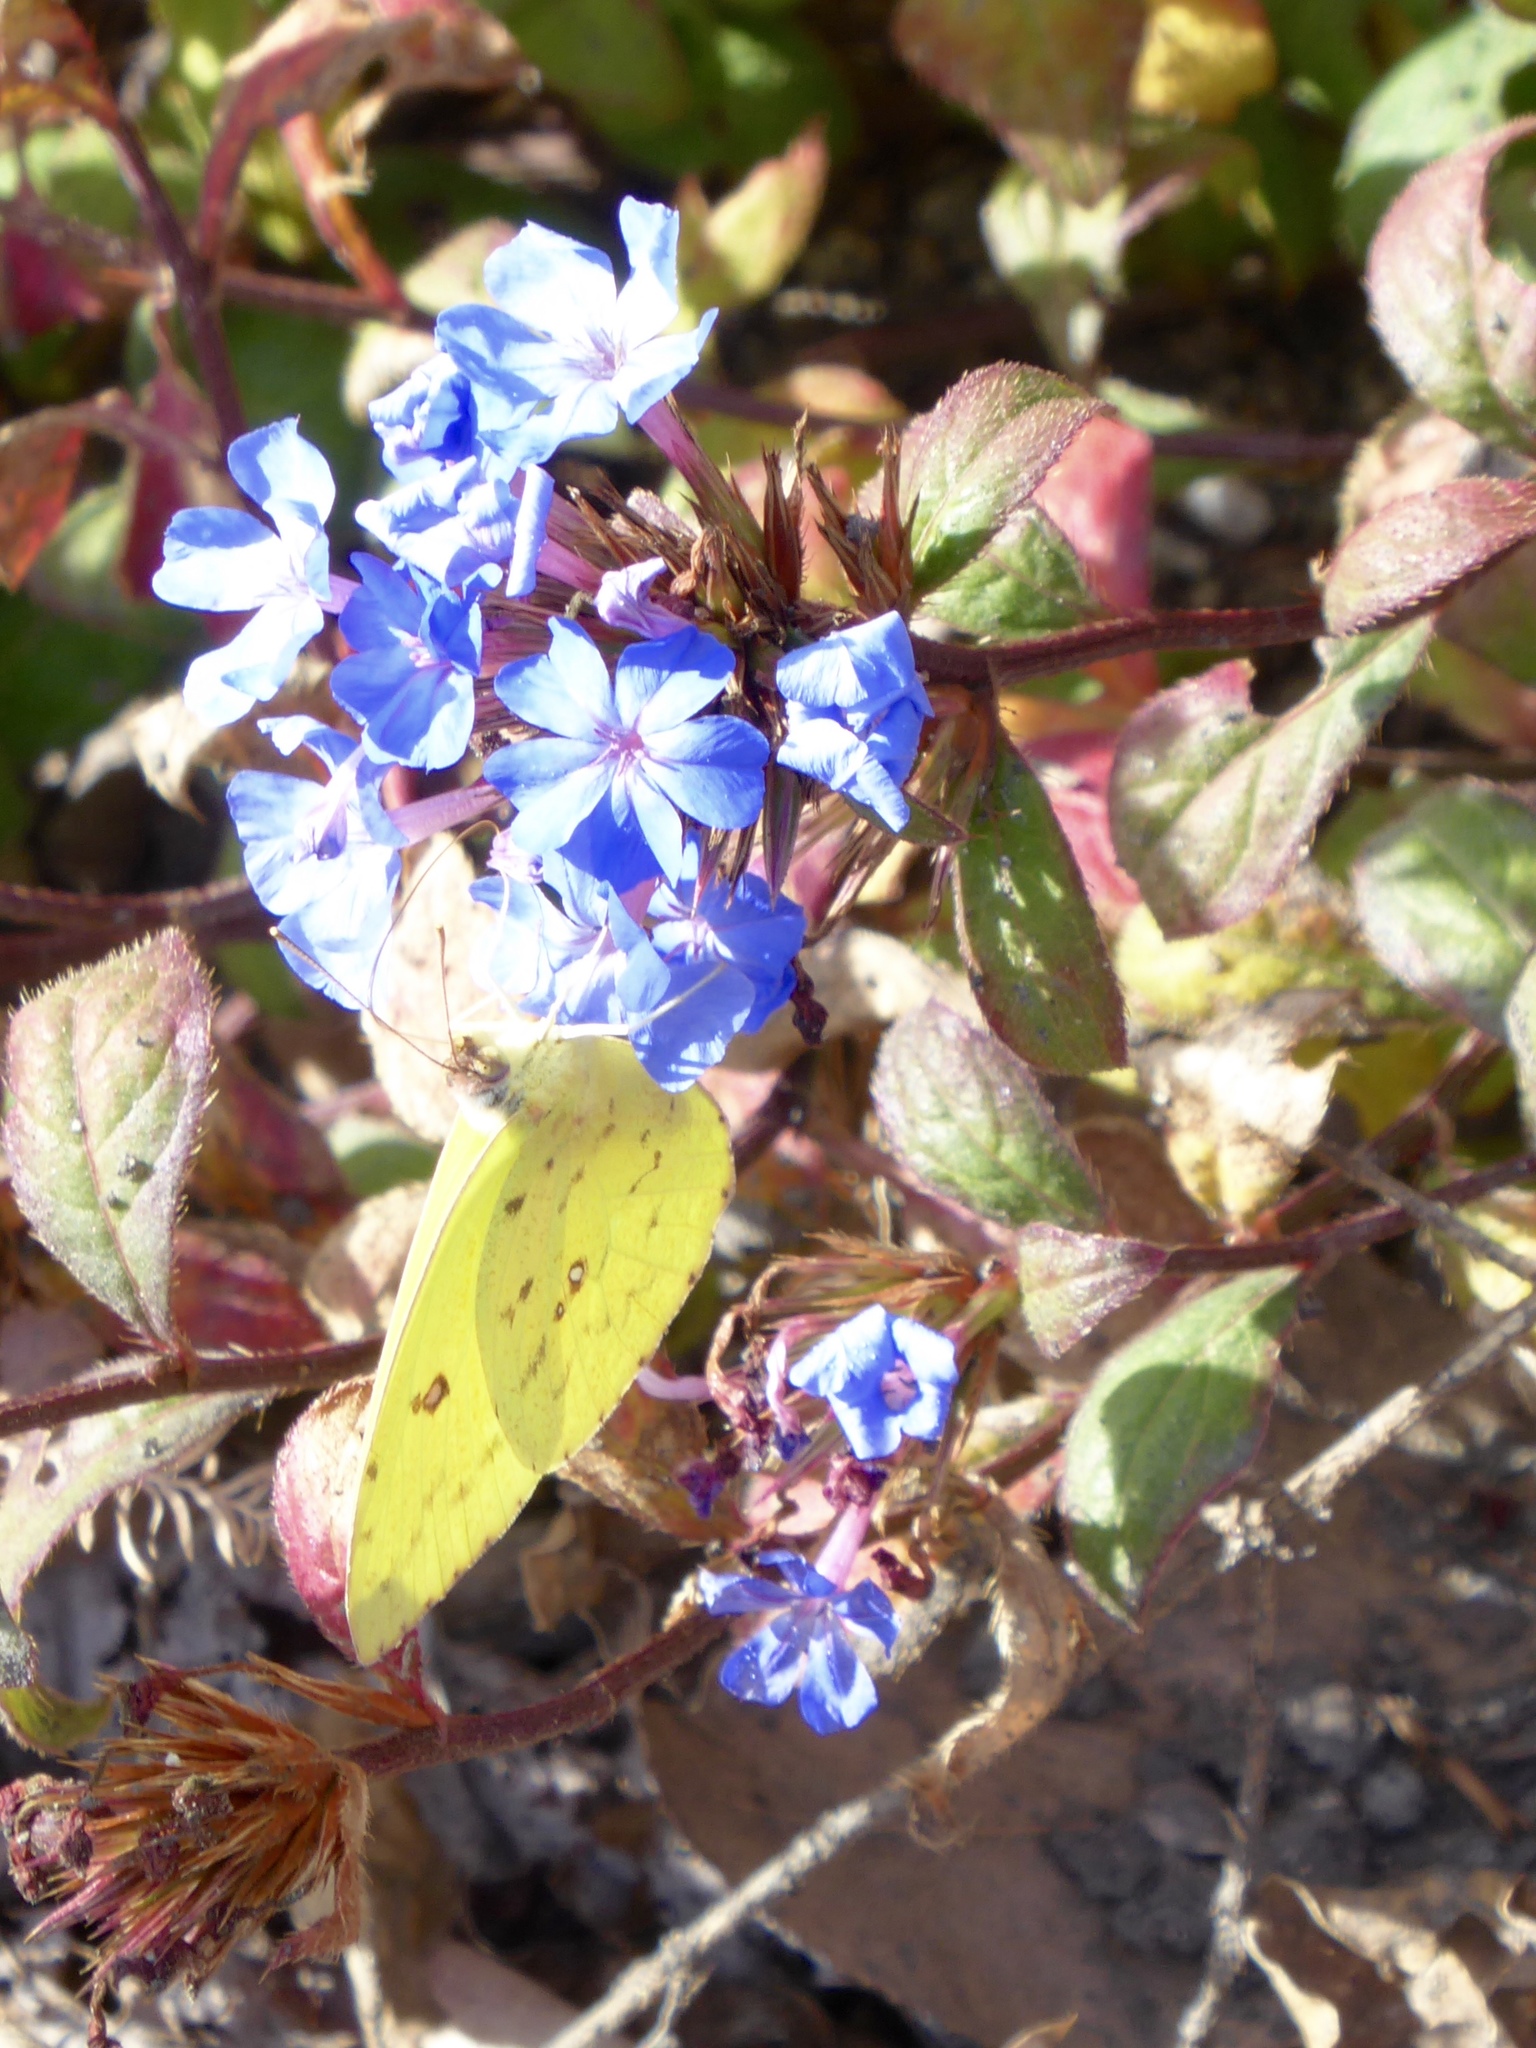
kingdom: Animalia
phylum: Arthropoda
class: Insecta
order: Lepidoptera
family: Pieridae
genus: Phoebis
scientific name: Phoebis sennae
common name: Cloudless sulphur
